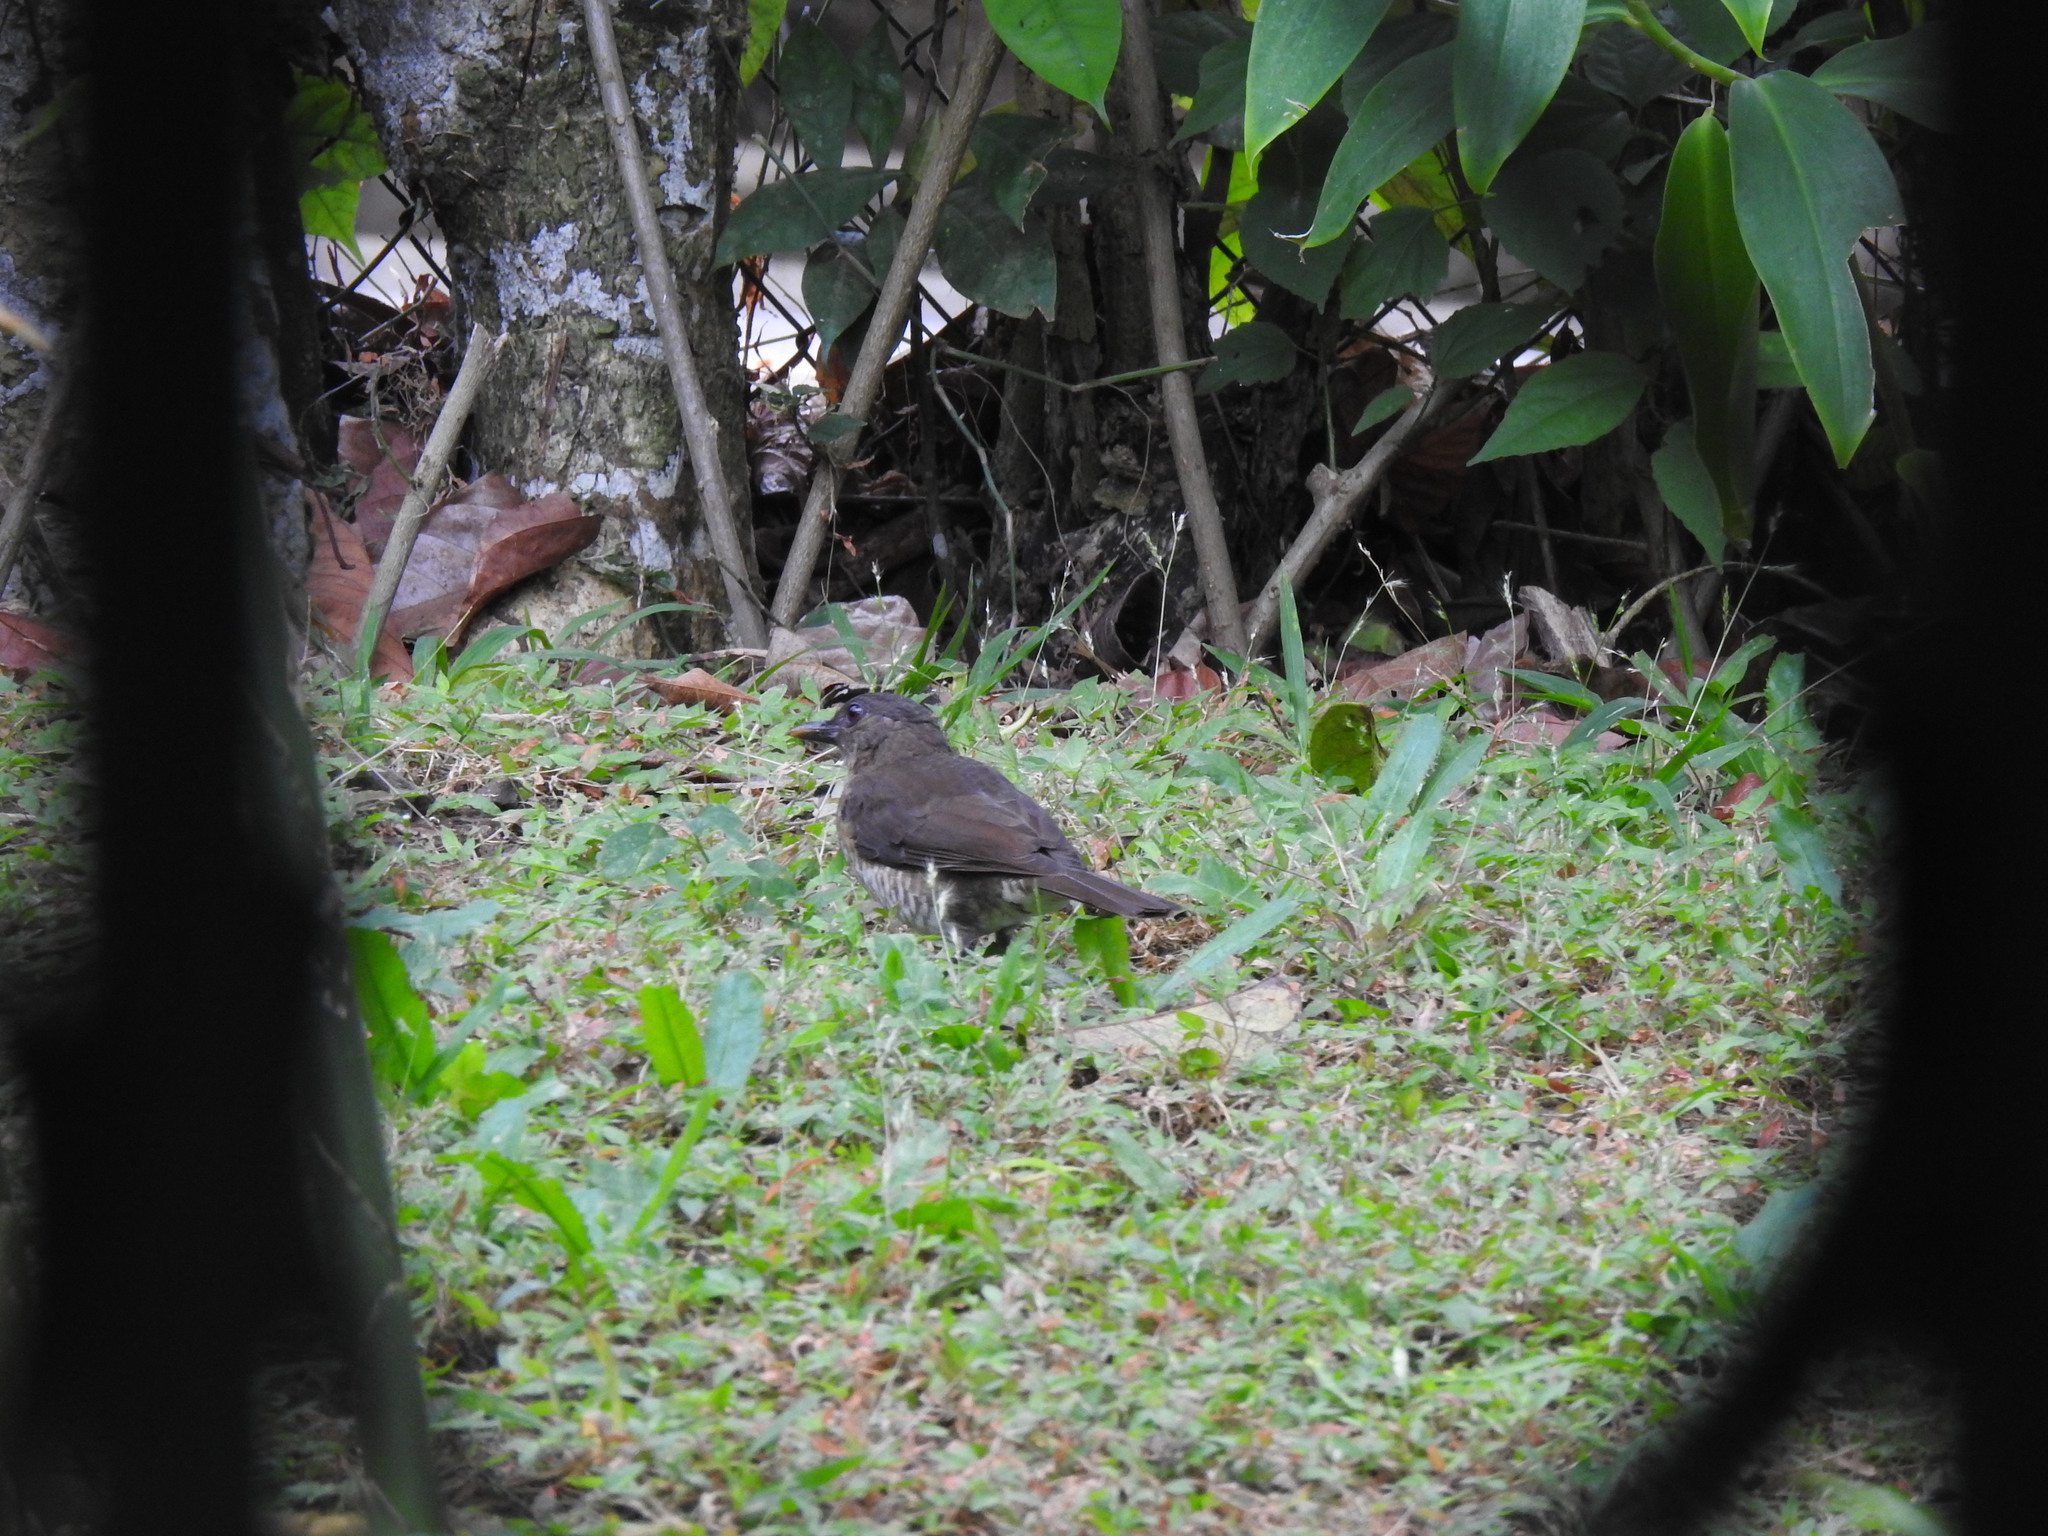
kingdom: Animalia
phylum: Chordata
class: Aves
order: Passeriformes
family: Turdidae
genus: Turdus
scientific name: Turdus olivaceofuscus
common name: Sao tome thrush
